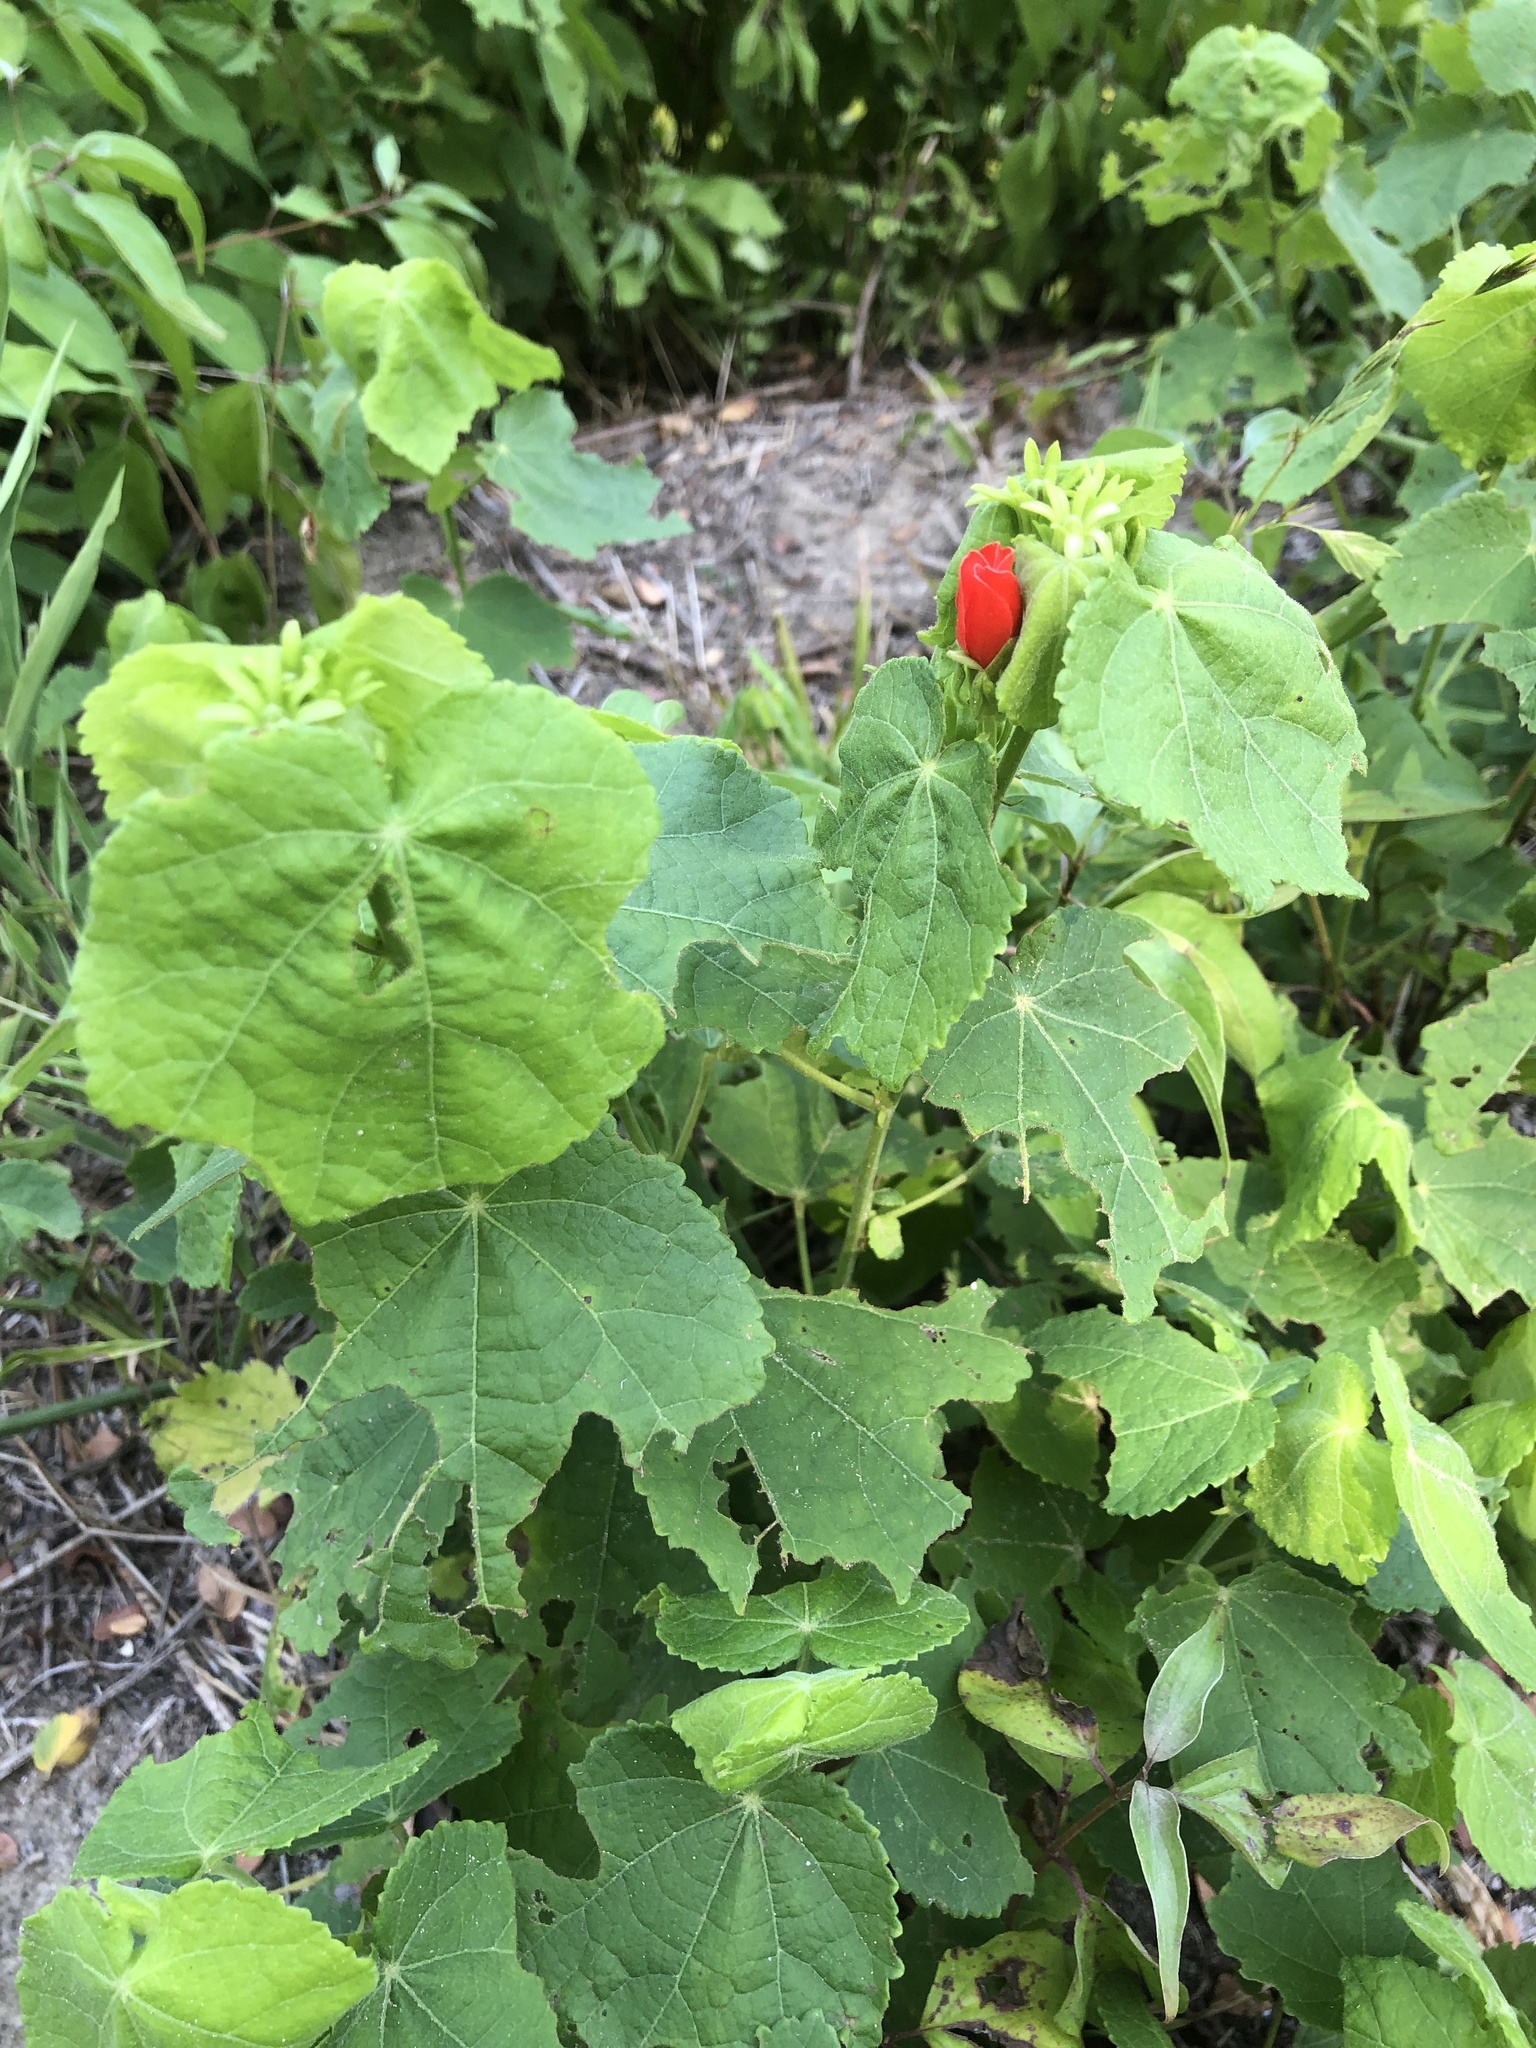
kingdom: Plantae
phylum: Tracheophyta
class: Magnoliopsida
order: Malvales
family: Malvaceae
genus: Malvaviscus
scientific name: Malvaviscus arboreus
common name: Wax mallow
